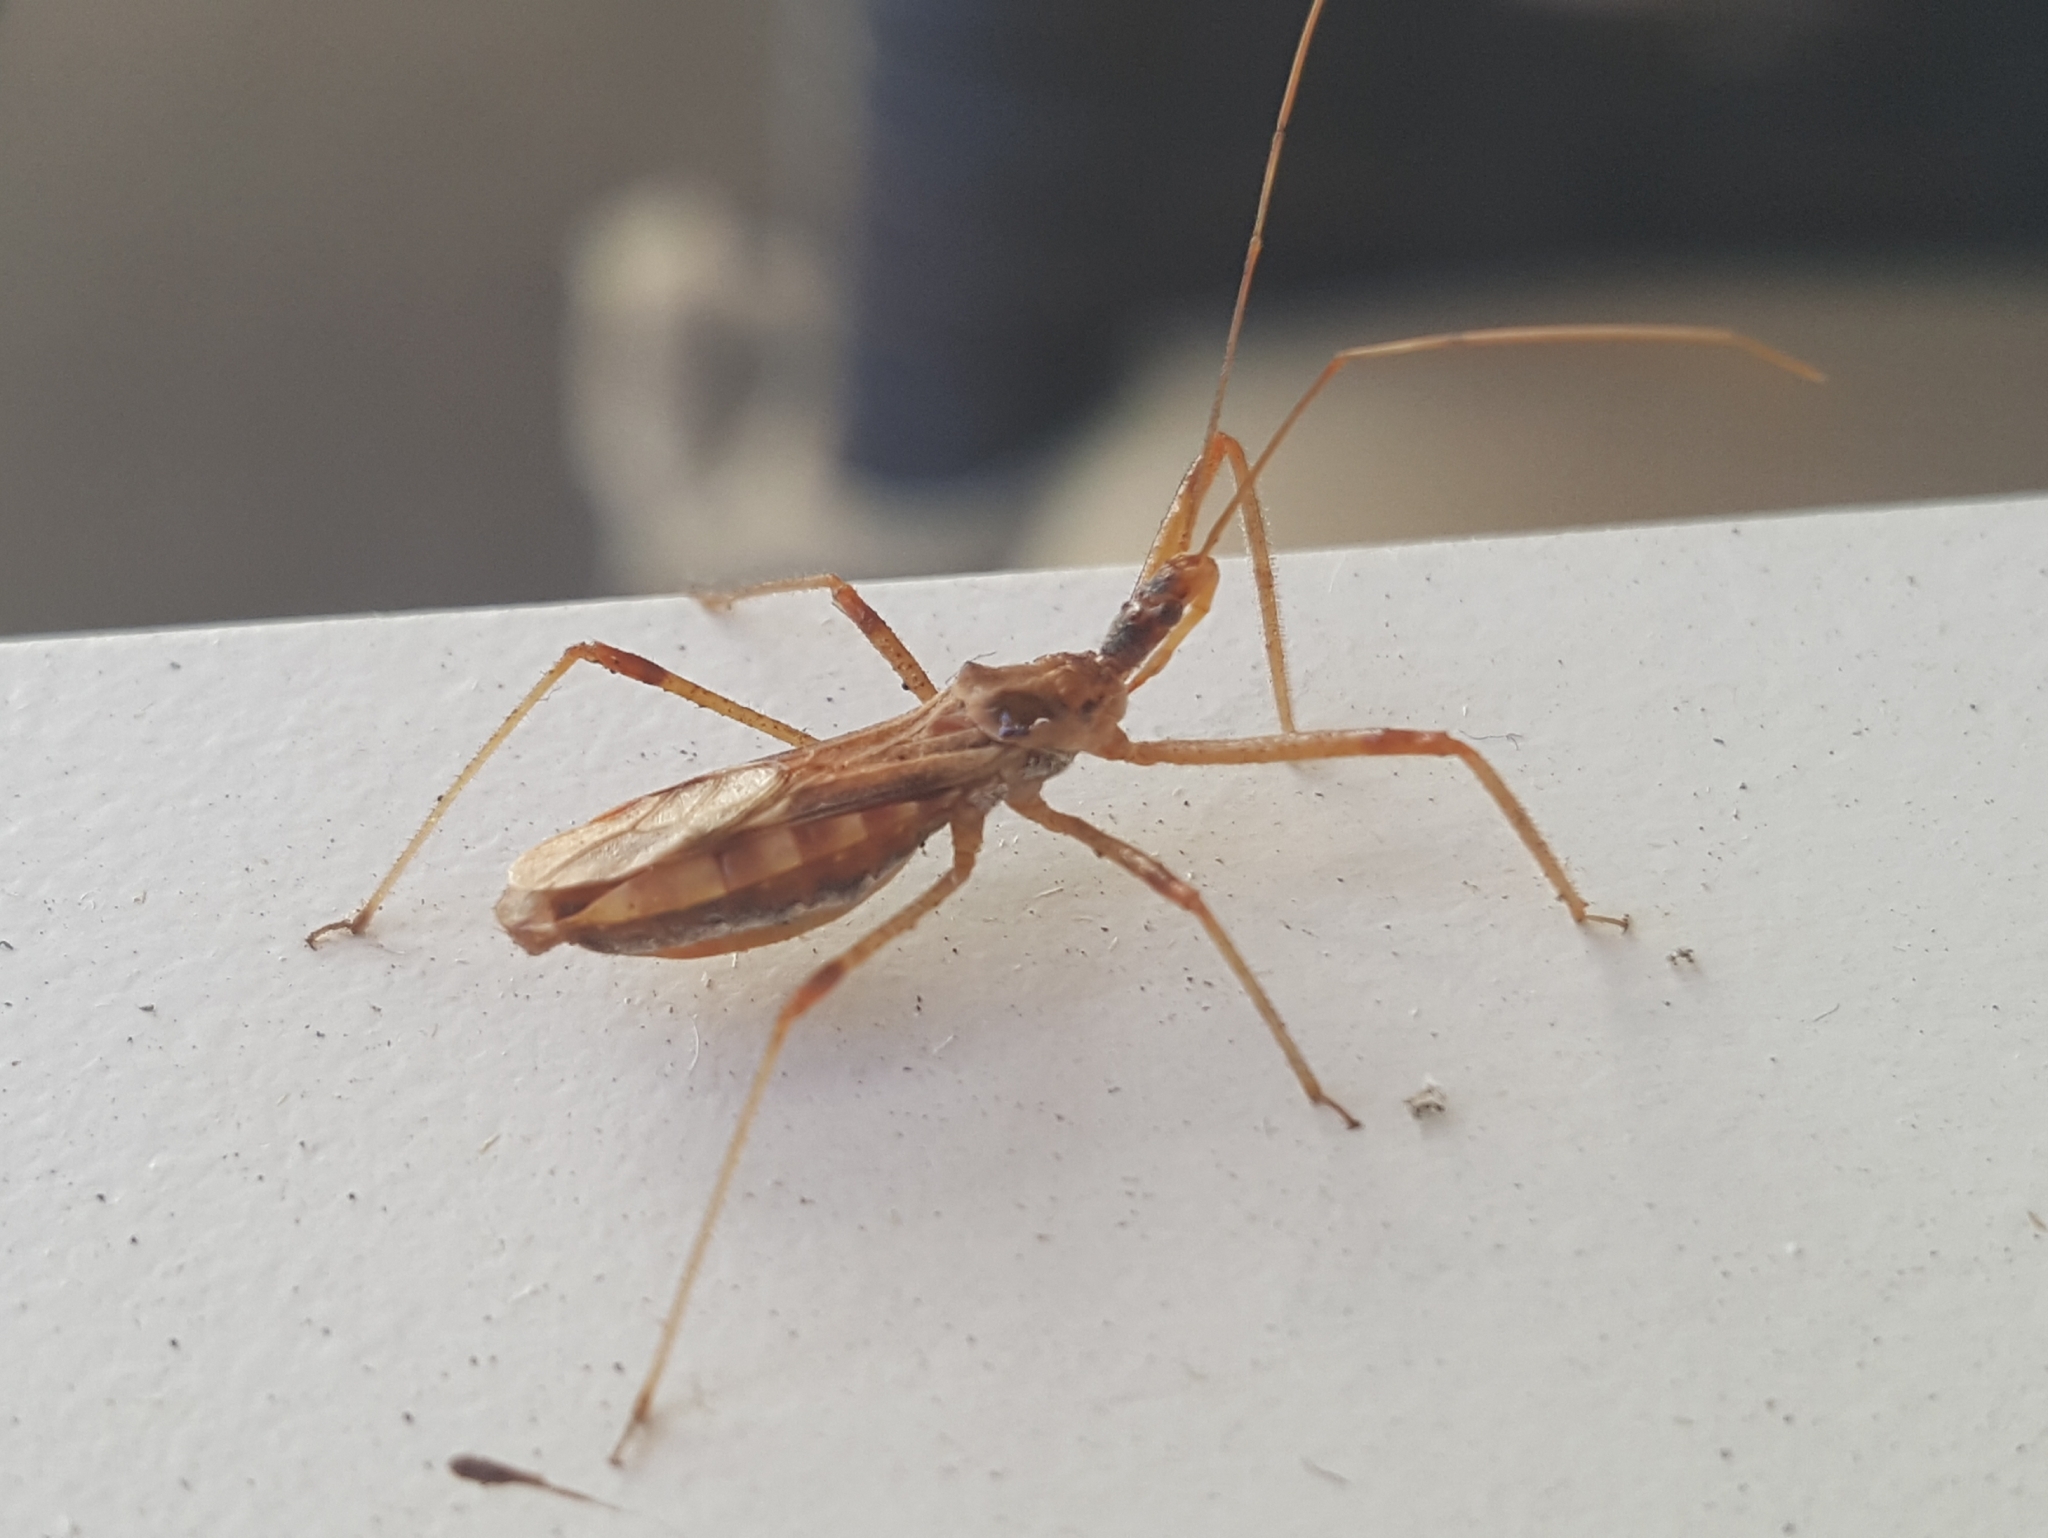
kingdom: Animalia
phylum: Arthropoda
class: Insecta
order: Hemiptera
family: Reduviidae
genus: Zelus
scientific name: Zelus tetracanthus
